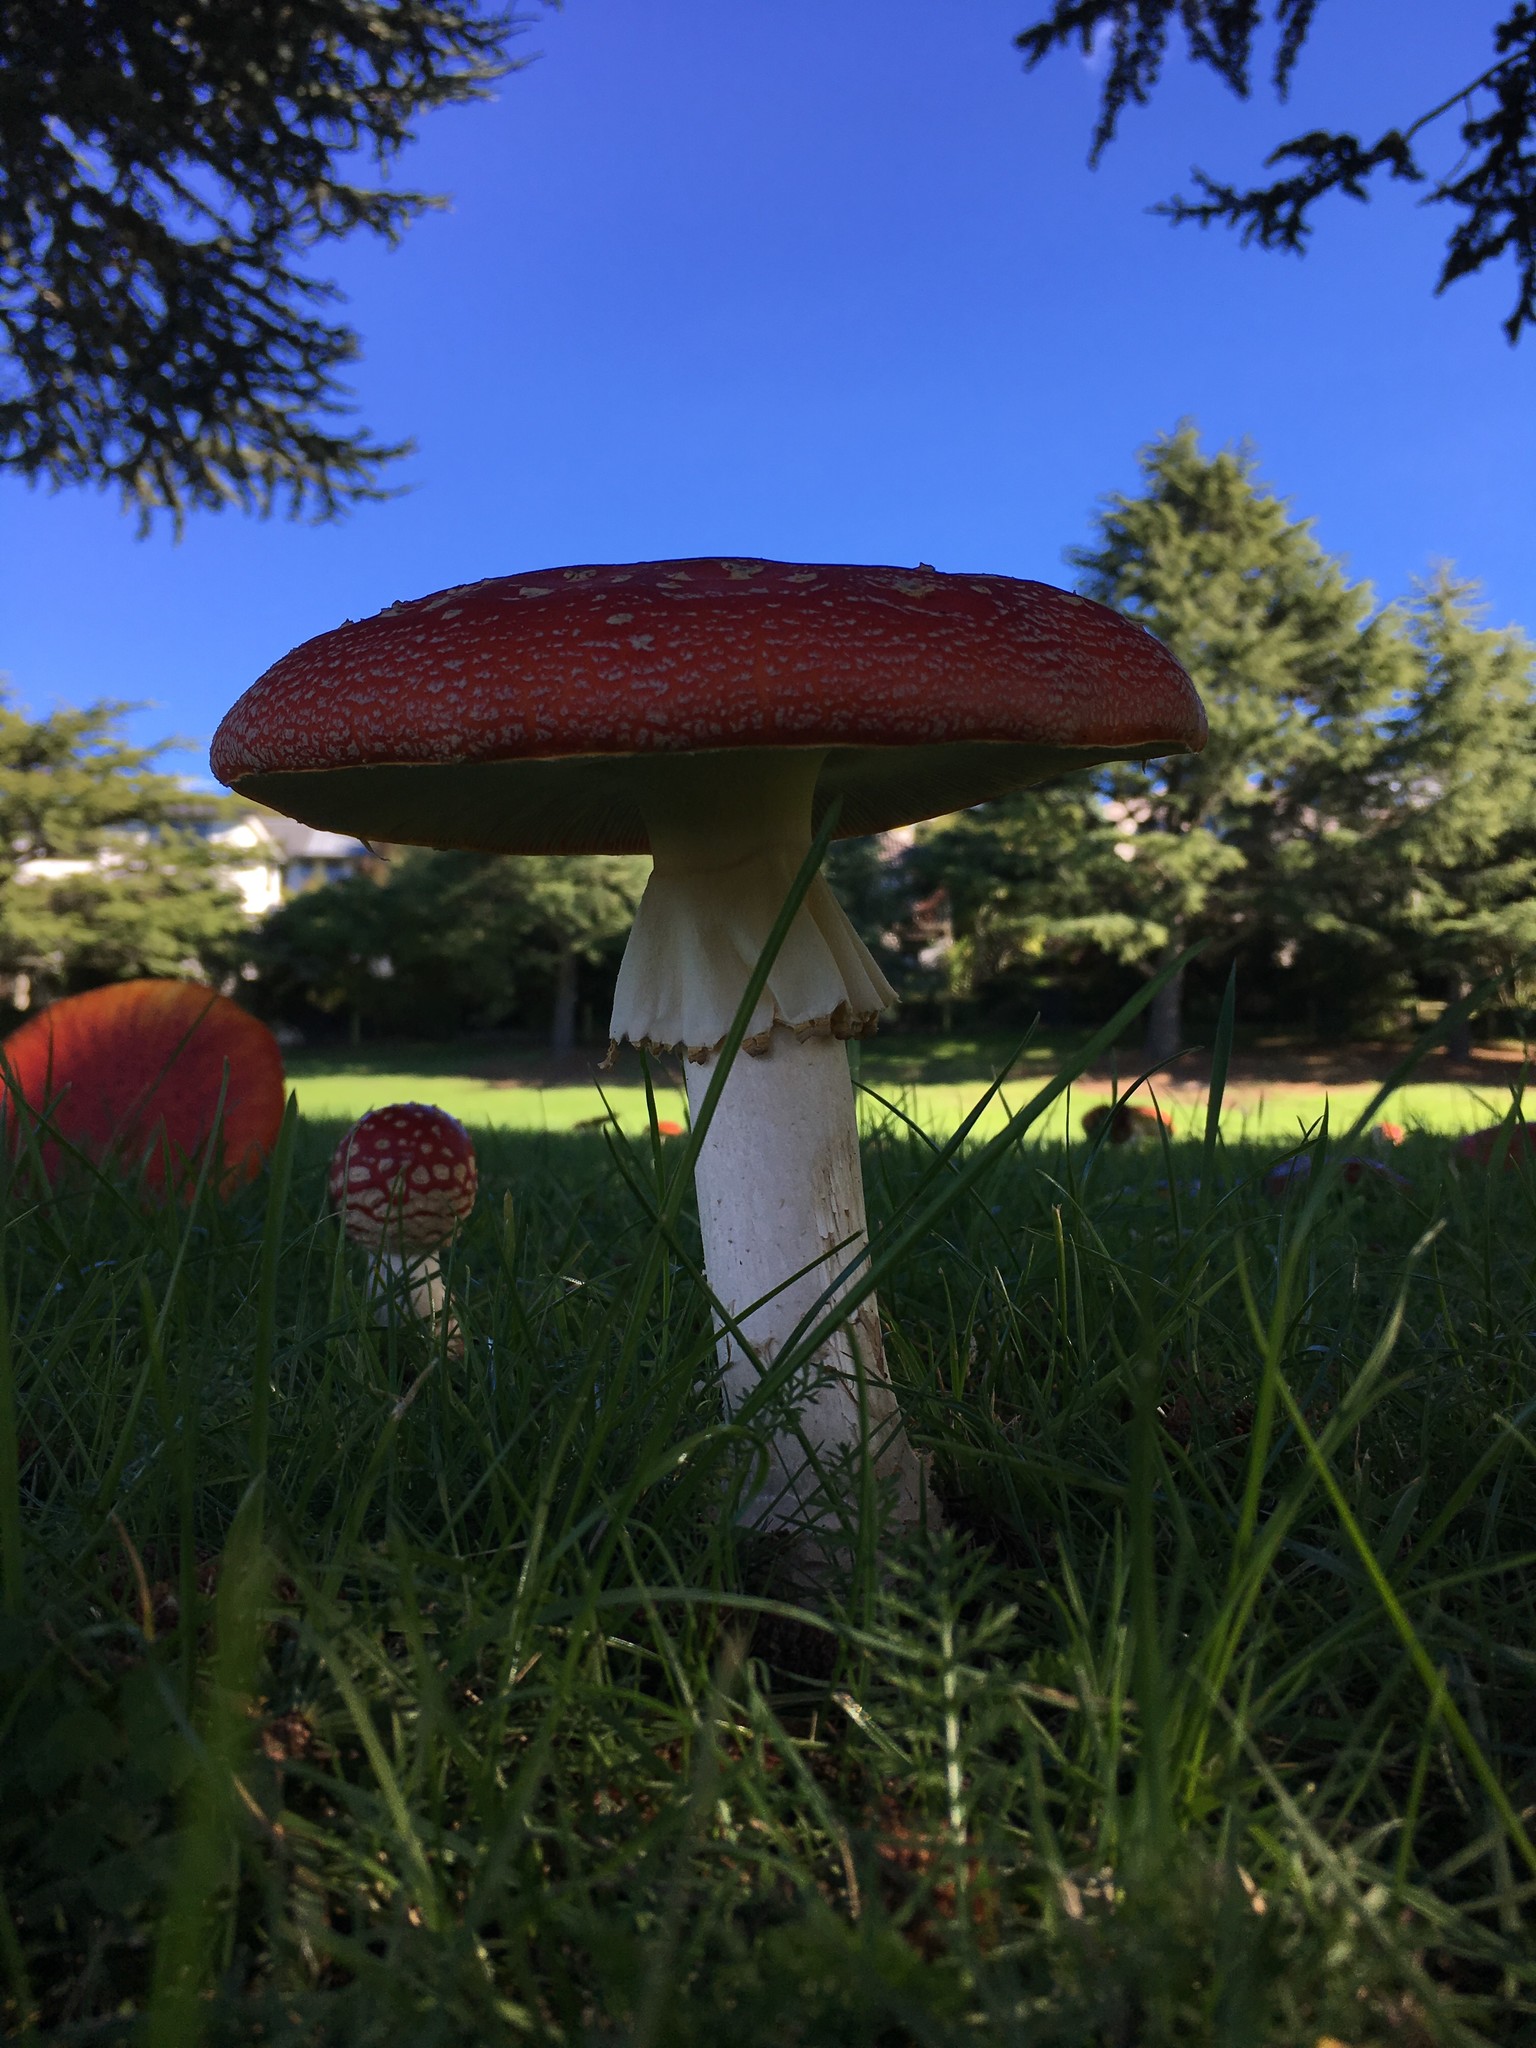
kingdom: Fungi
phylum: Basidiomycota
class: Agaricomycetes
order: Agaricales
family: Amanitaceae
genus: Amanita
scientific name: Amanita muscaria
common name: Fly agaric
